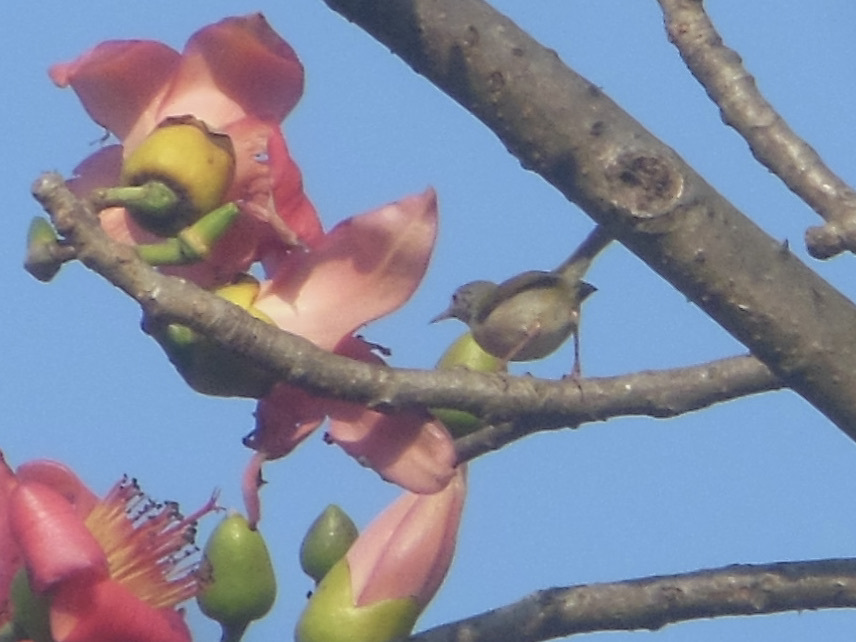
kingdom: Animalia
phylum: Chordata
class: Aves
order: Passeriformes
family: Cisticolidae
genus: Orthotomus
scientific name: Orthotomus sutorius
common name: Common tailorbird
